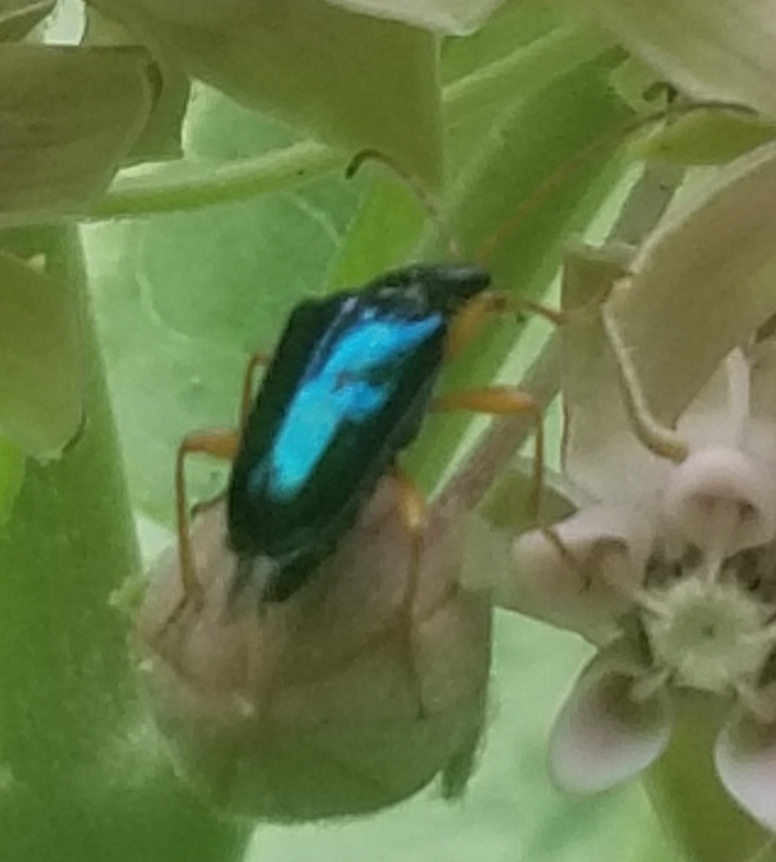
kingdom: Animalia
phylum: Arthropoda
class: Insecta
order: Coleoptera
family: Cerambycidae
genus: Gaurotes
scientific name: Gaurotes cyanipennis
